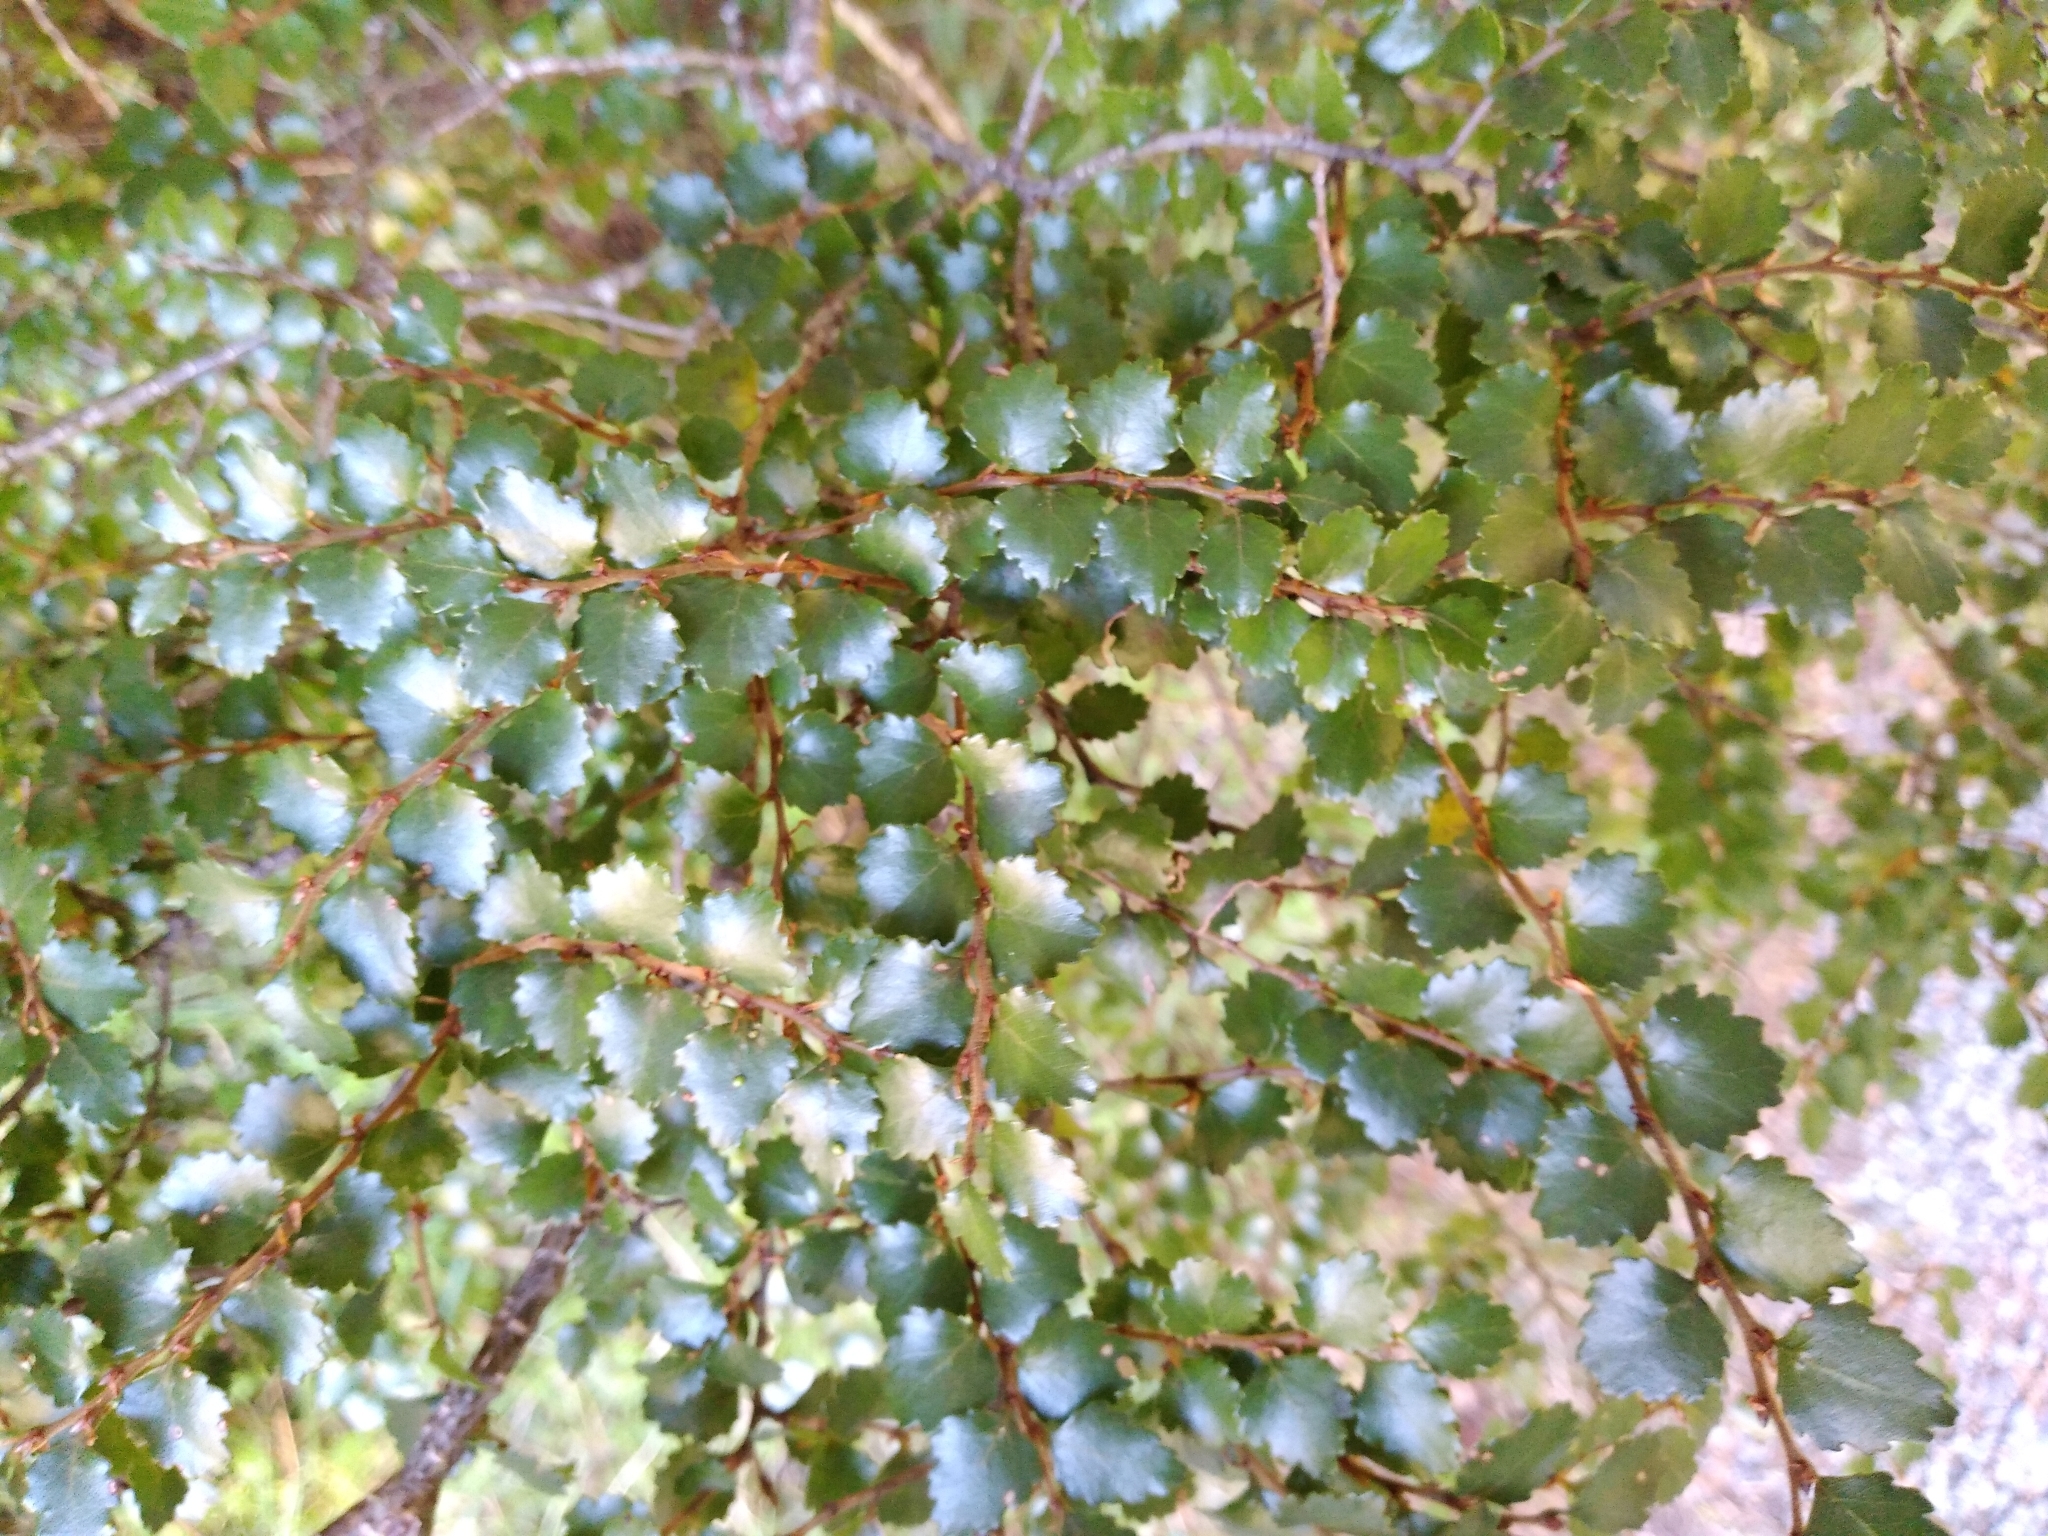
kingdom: Plantae
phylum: Tracheophyta
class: Magnoliopsida
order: Fagales
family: Nothofagaceae
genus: Nothofagus
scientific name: Nothofagus menziesii
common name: Silver beech
